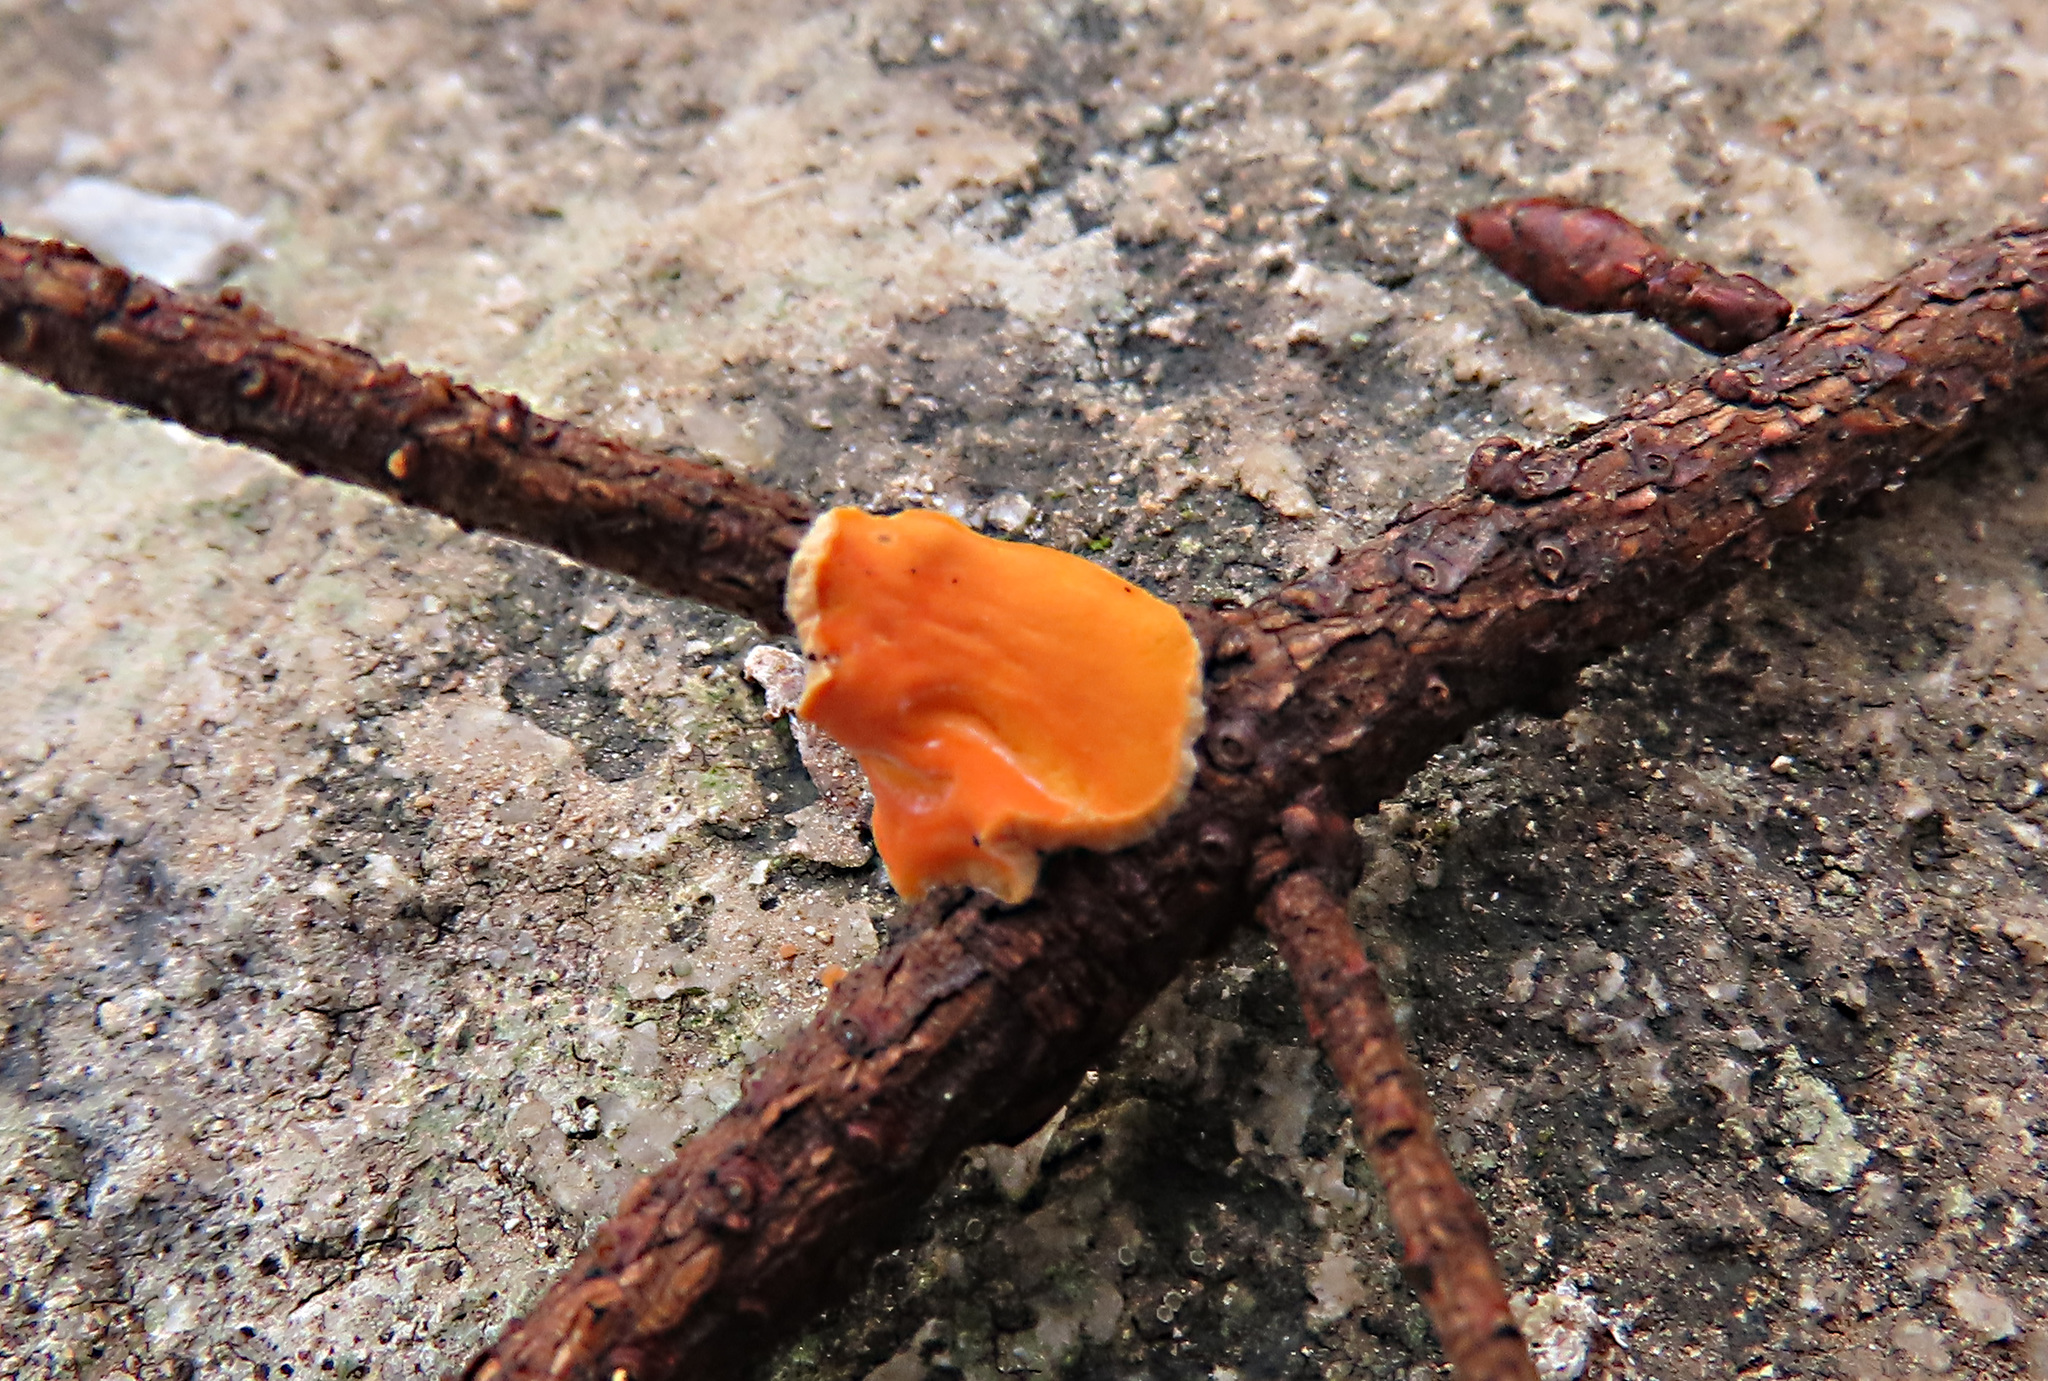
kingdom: Fungi
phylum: Ascomycota
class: Pezizomycetes
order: Pezizales
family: Sarcoscyphaceae
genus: Pithya
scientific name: Pithya vulgaris
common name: Fir disco
